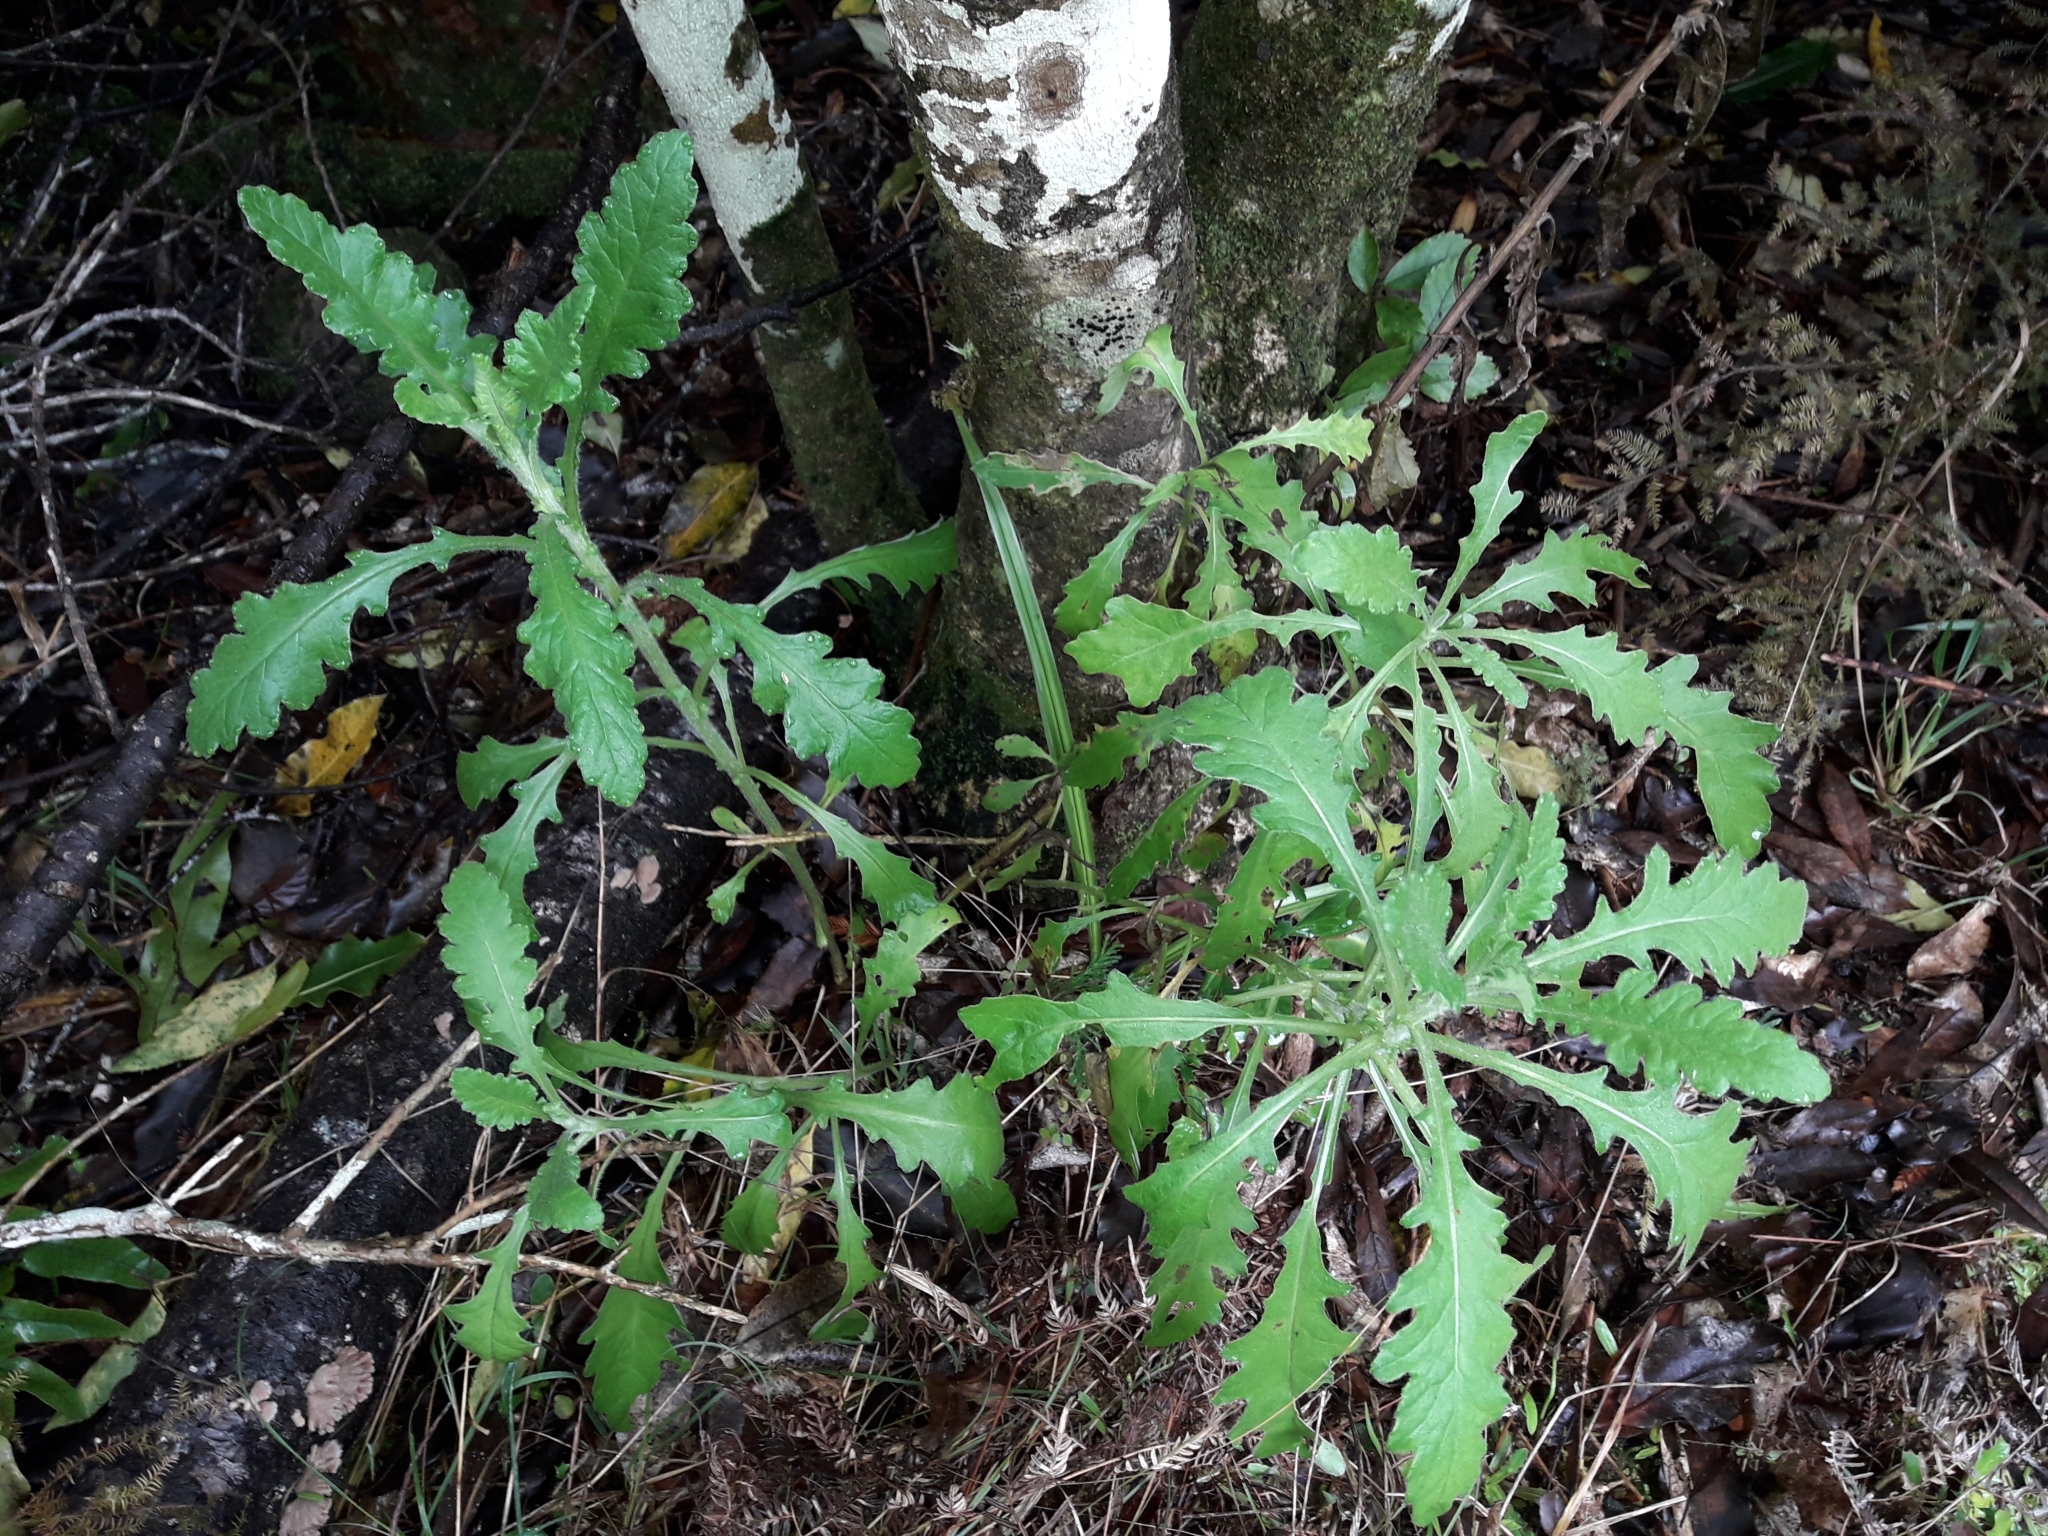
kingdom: Plantae
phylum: Tracheophyta
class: Magnoliopsida
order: Asterales
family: Asteraceae
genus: Senecio
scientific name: Senecio glomeratus
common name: Cutleaf burnweed
